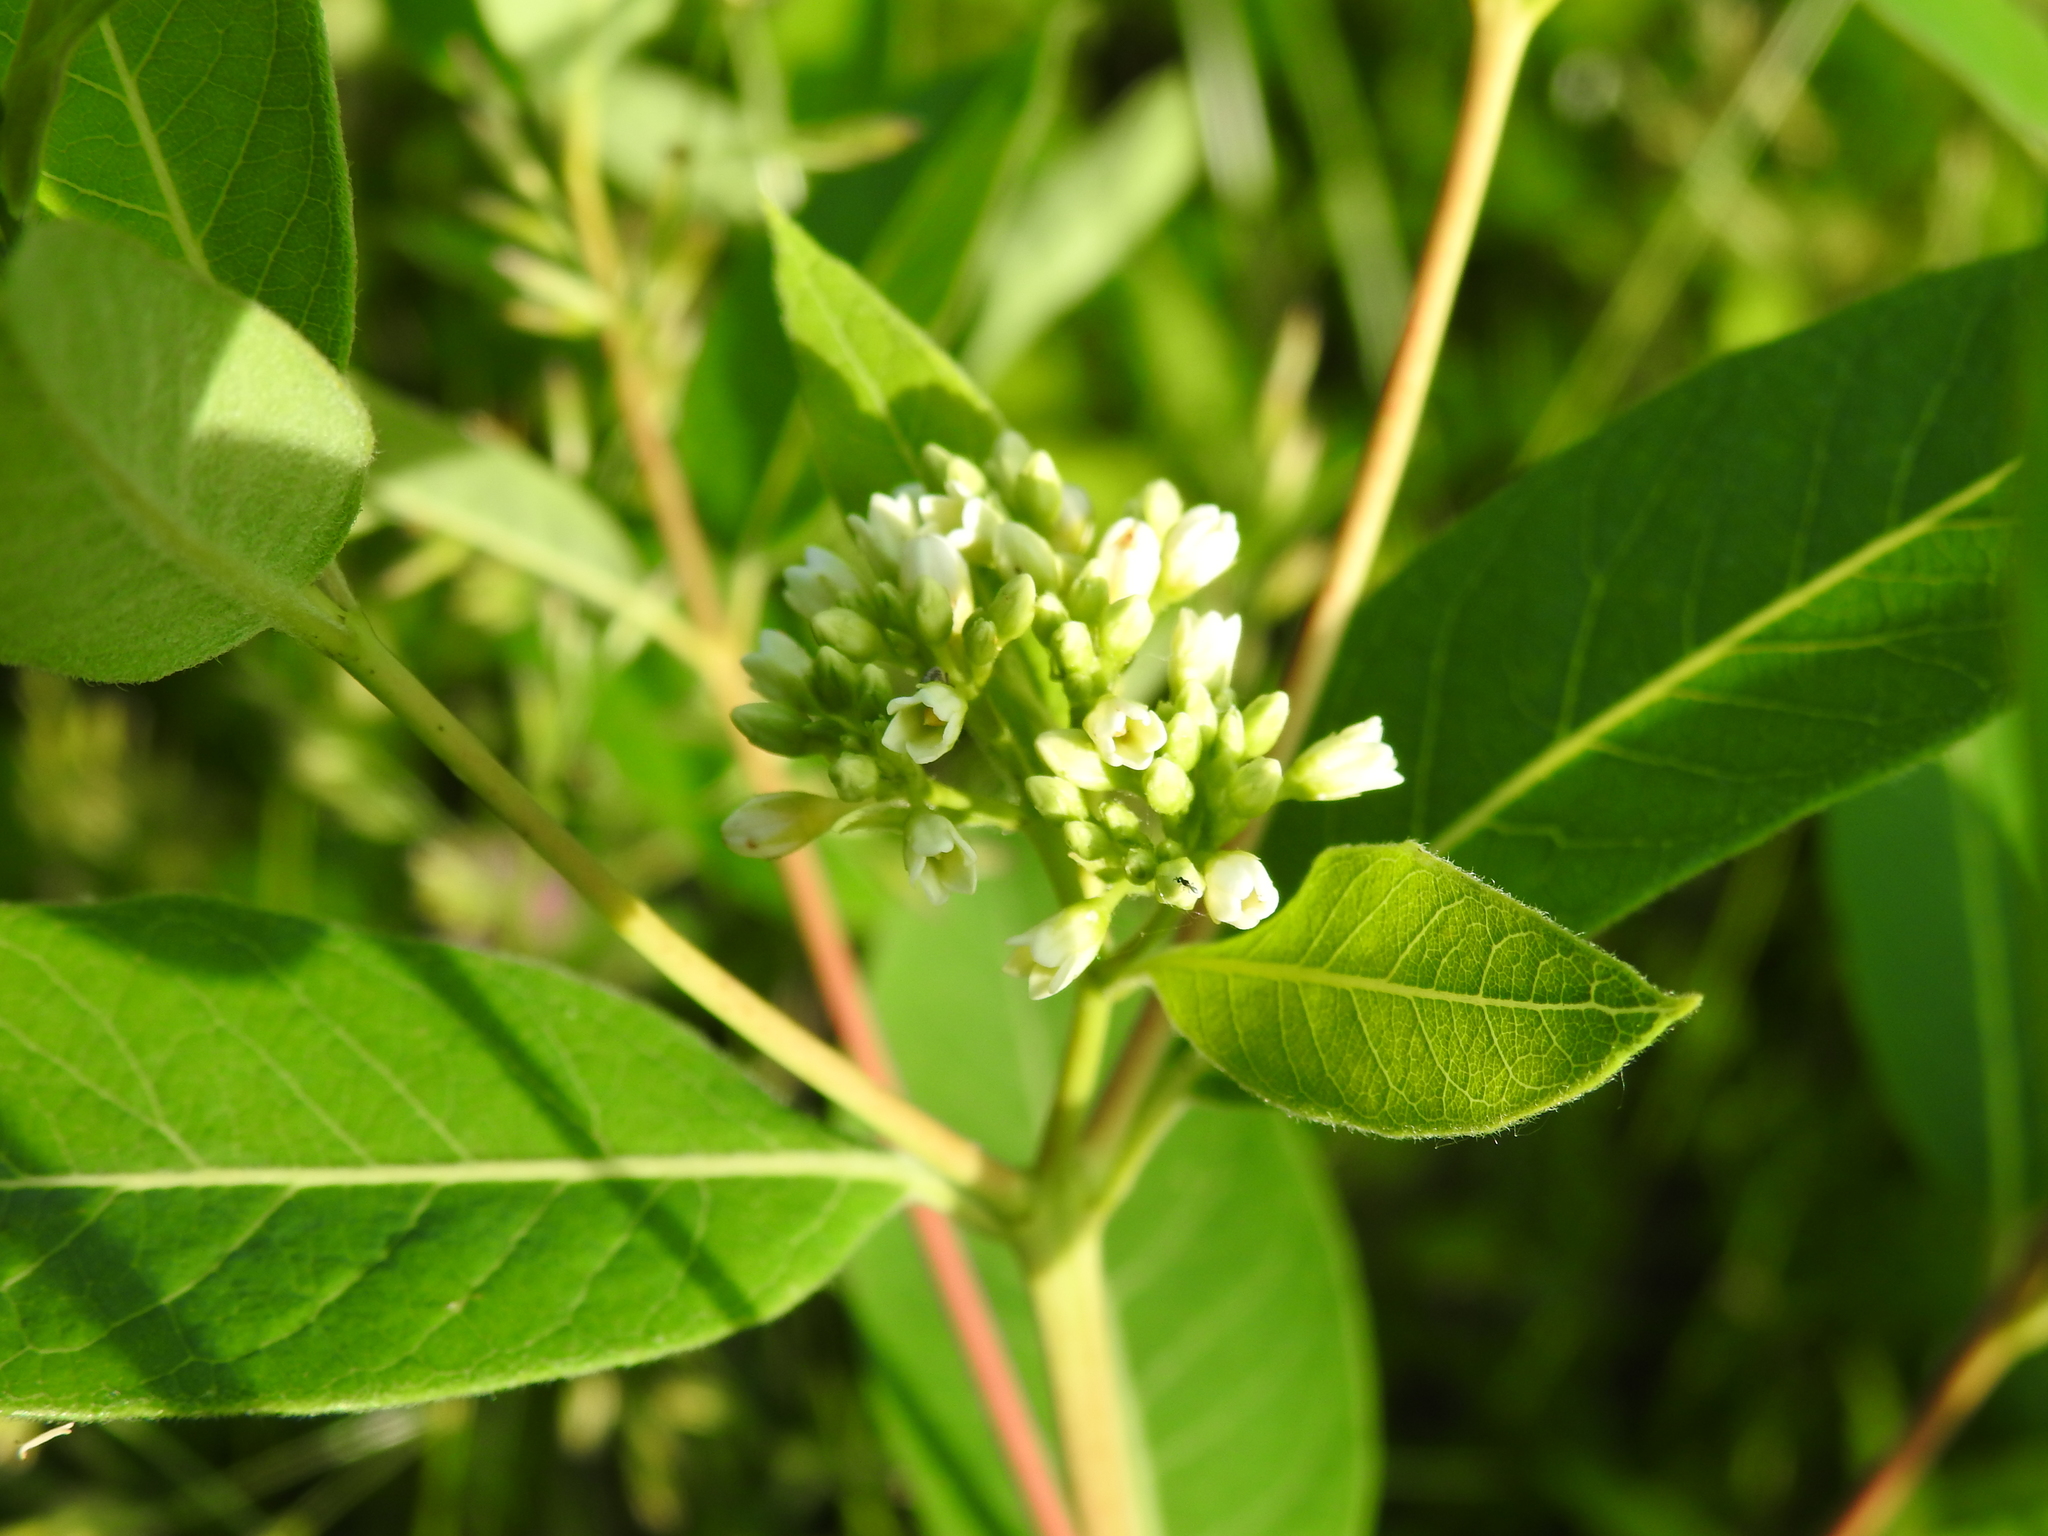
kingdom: Plantae
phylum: Tracheophyta
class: Magnoliopsida
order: Gentianales
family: Apocynaceae
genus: Apocynum
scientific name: Apocynum cannabinum
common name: Hemp dogbane
